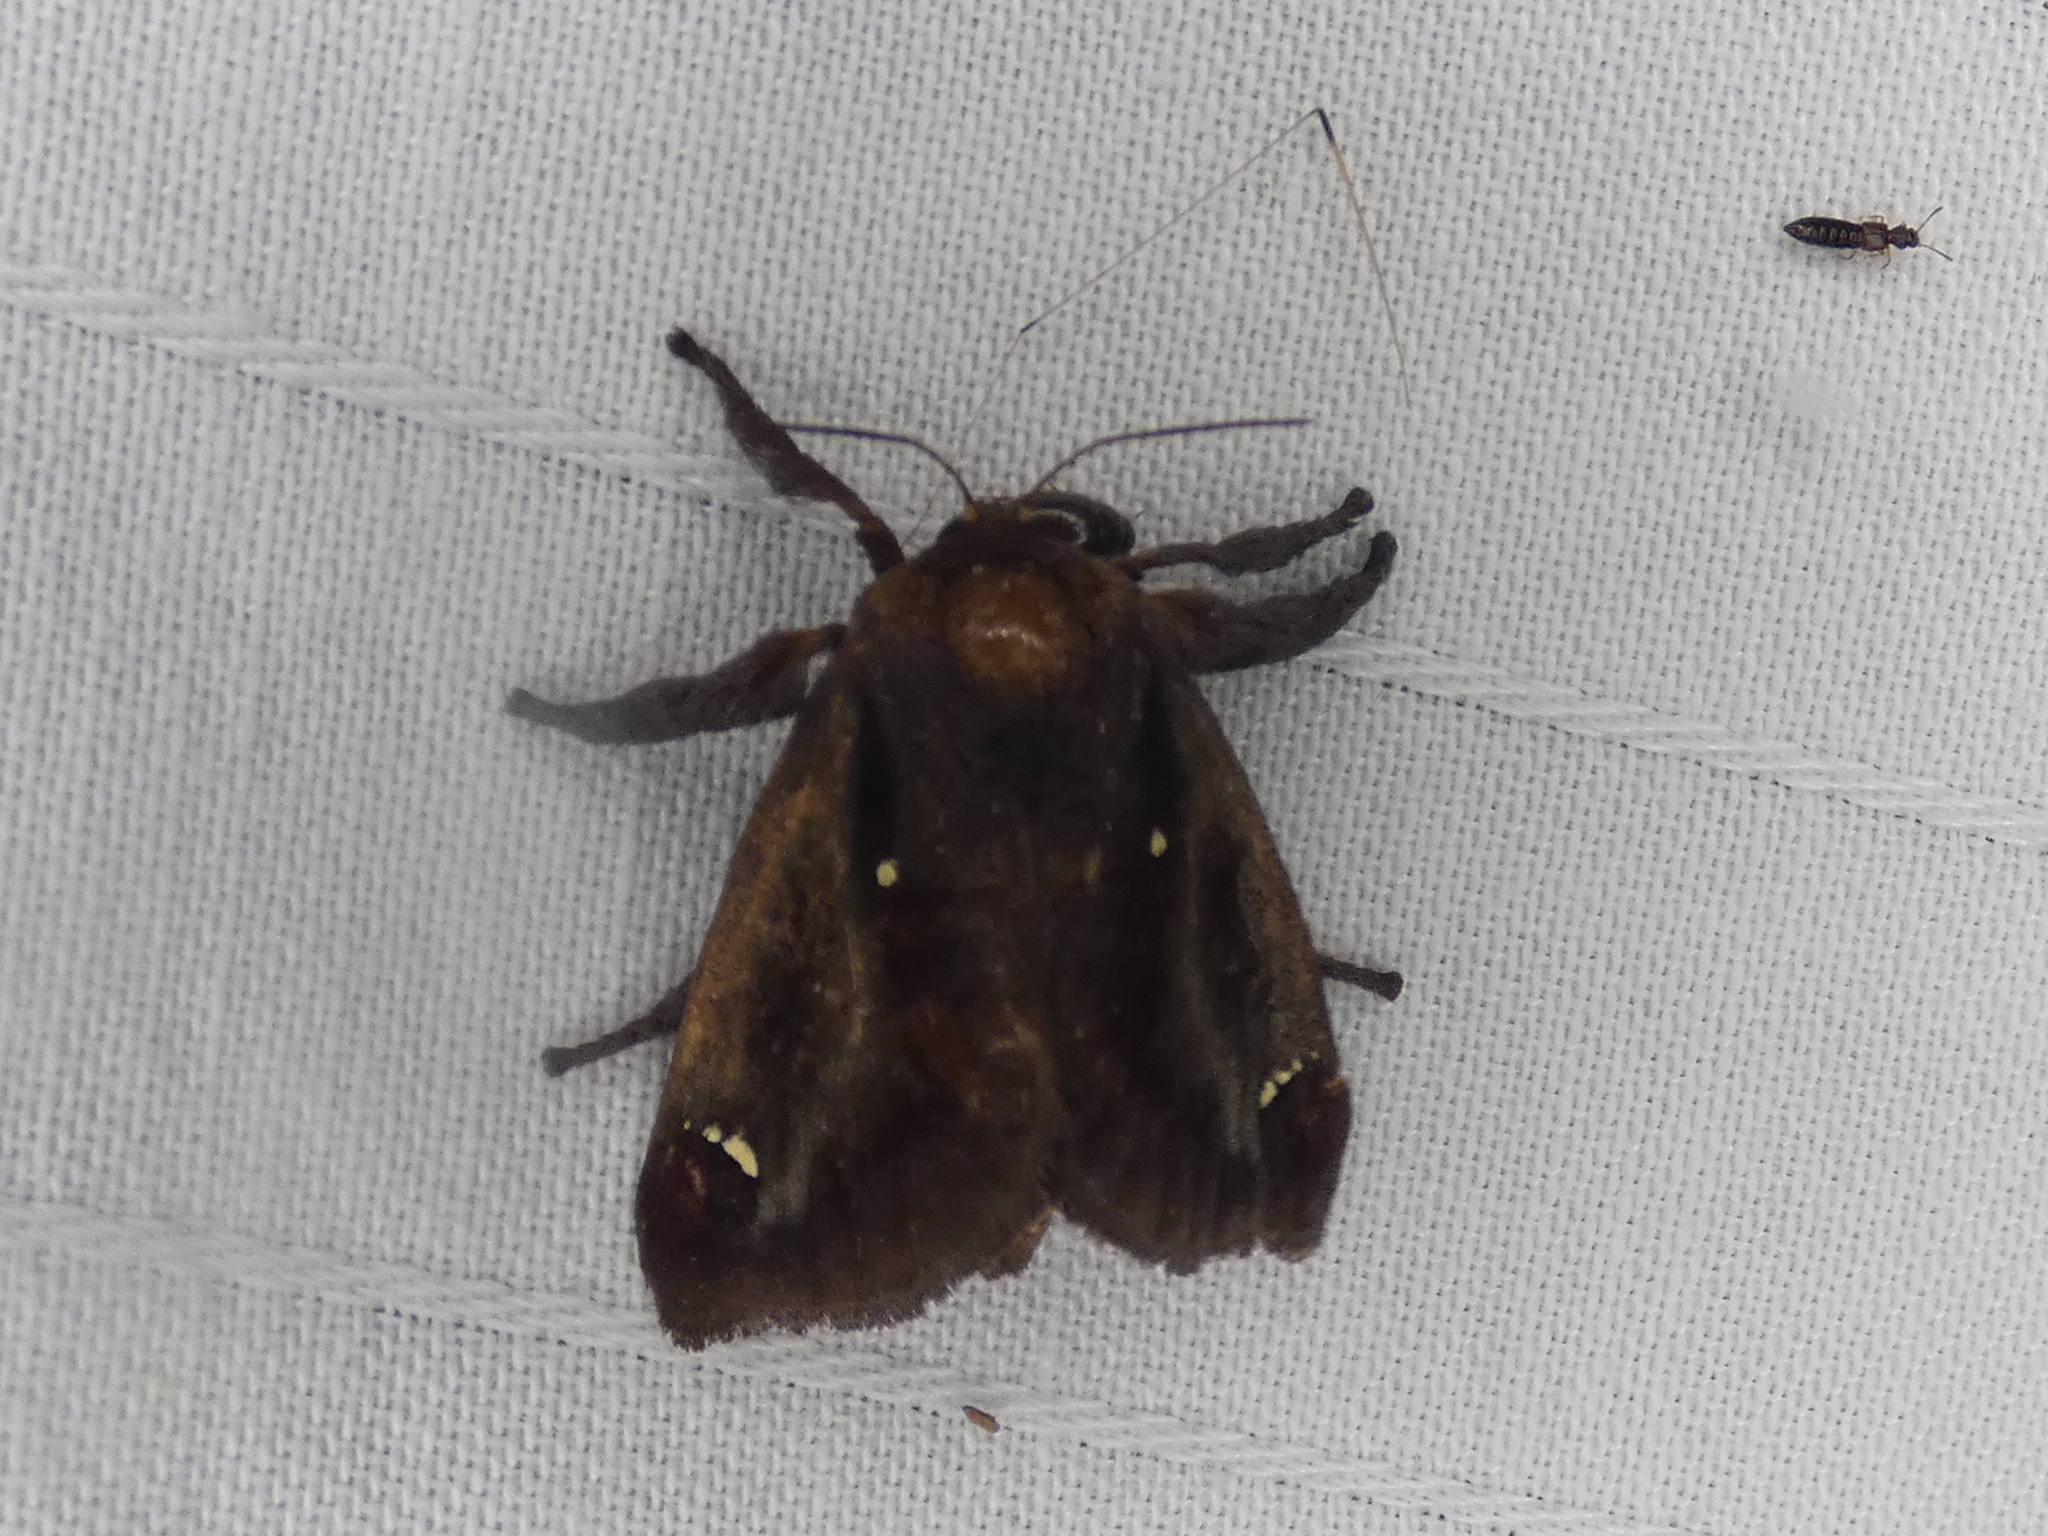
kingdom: Animalia
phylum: Arthropoda
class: Insecta
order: Lepidoptera
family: Limacodidae
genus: Acharia
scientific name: Acharia stimulea
